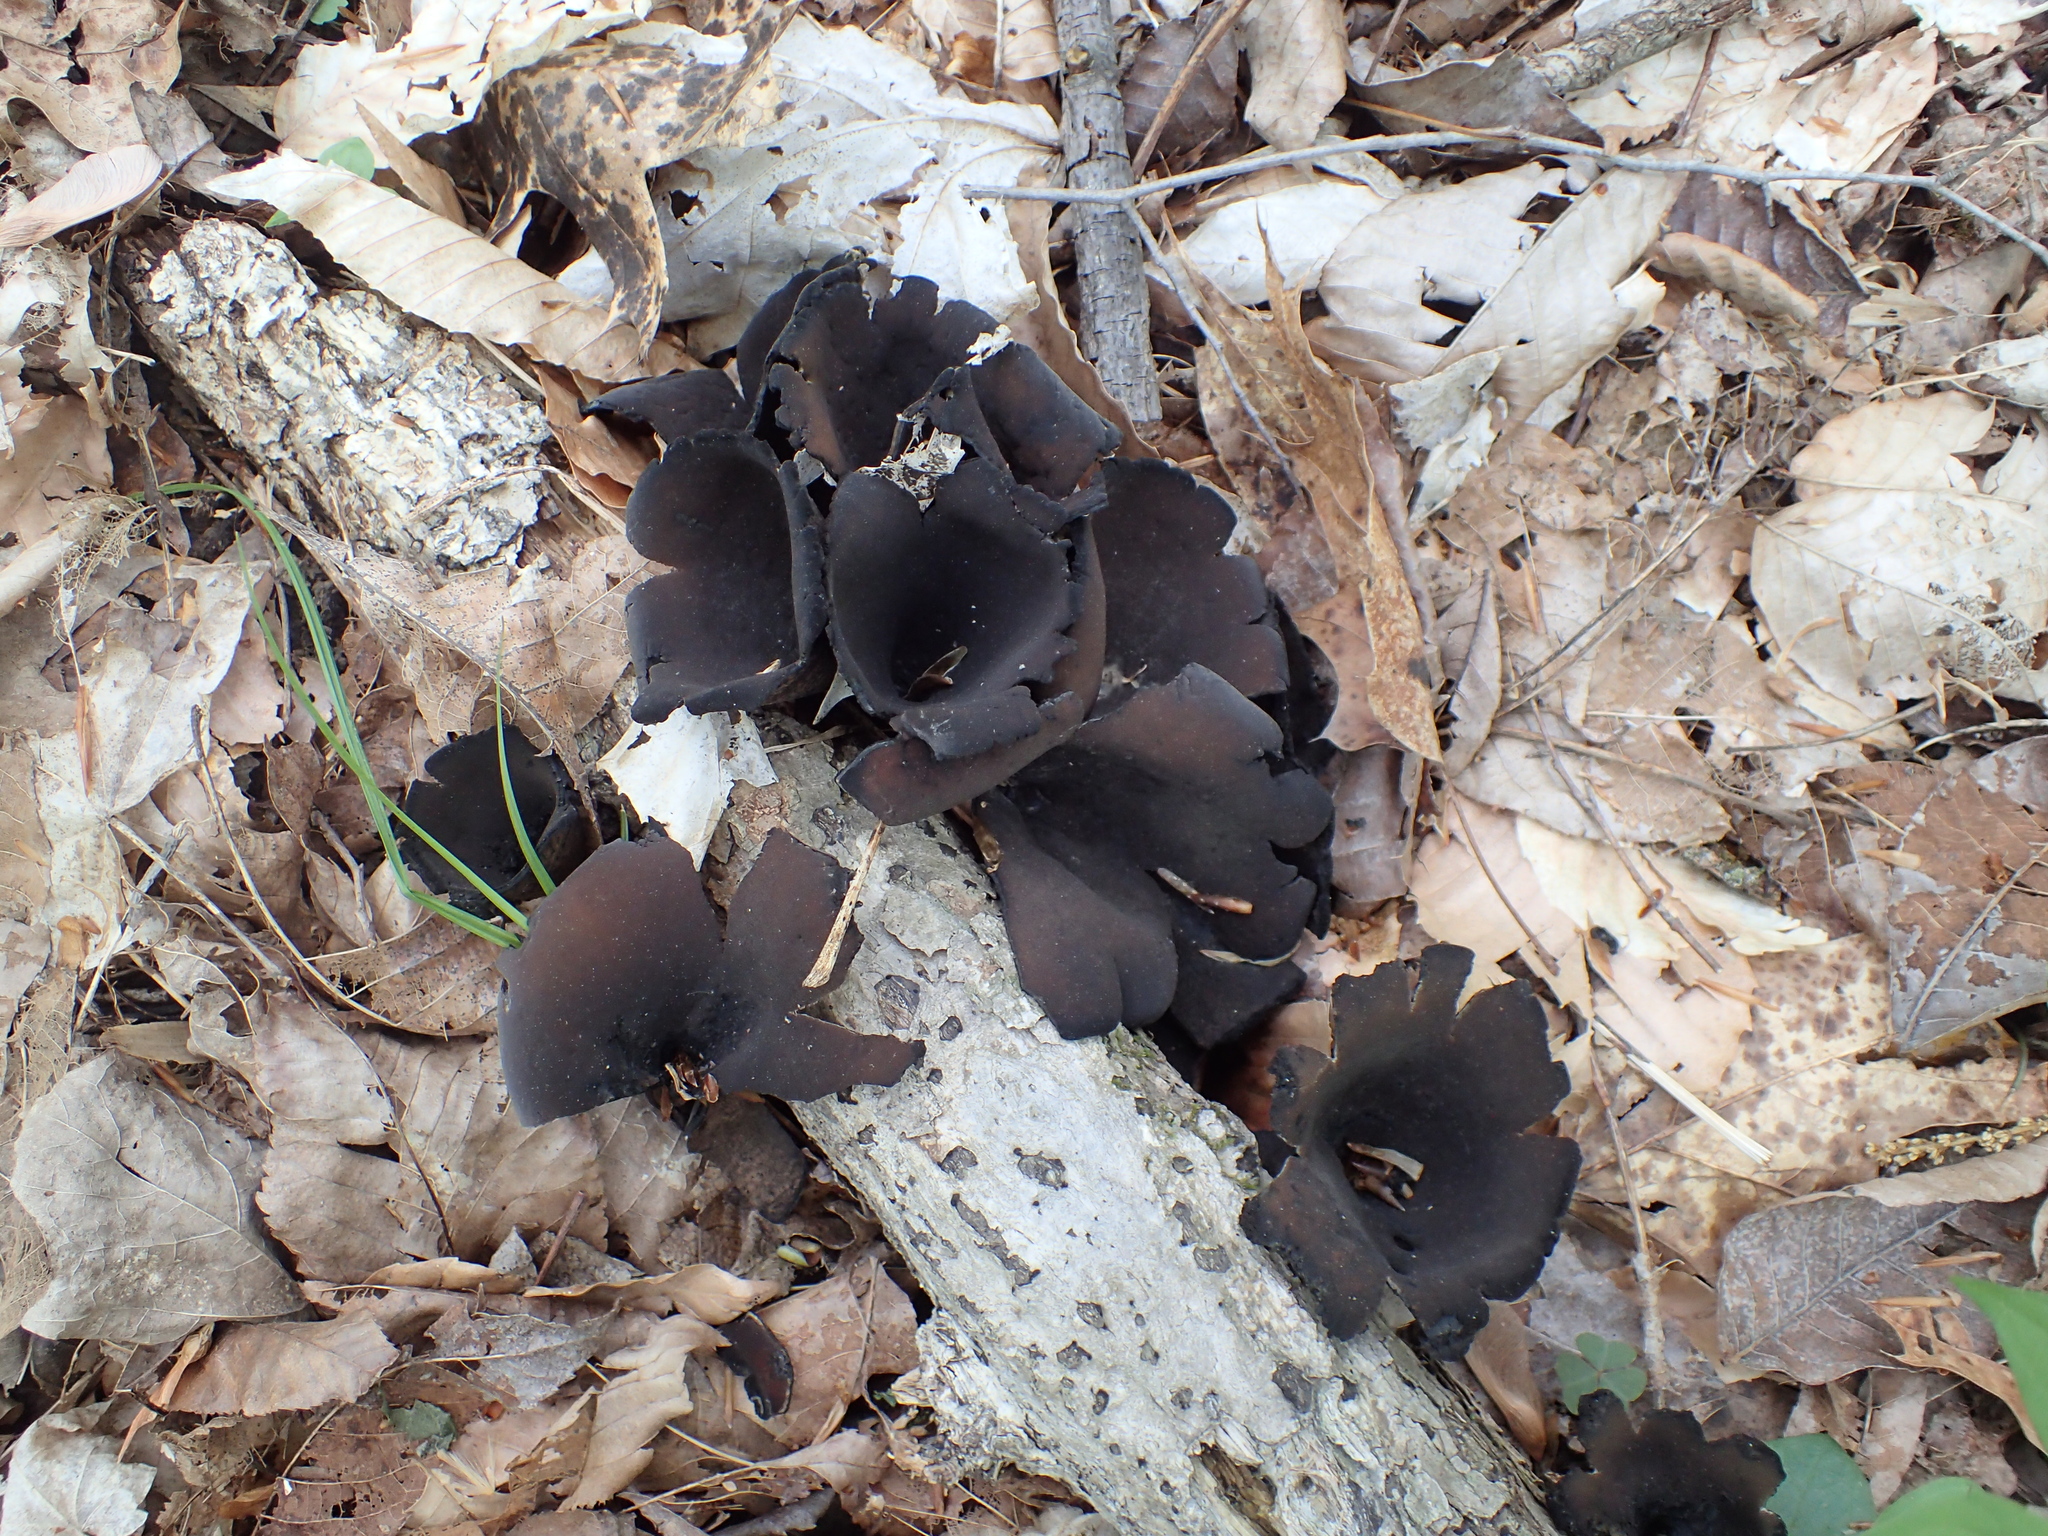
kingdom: Fungi
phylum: Ascomycota
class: Pezizomycetes
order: Pezizales
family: Sarcosomataceae
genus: Urnula
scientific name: Urnula craterium
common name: Devil's urn
